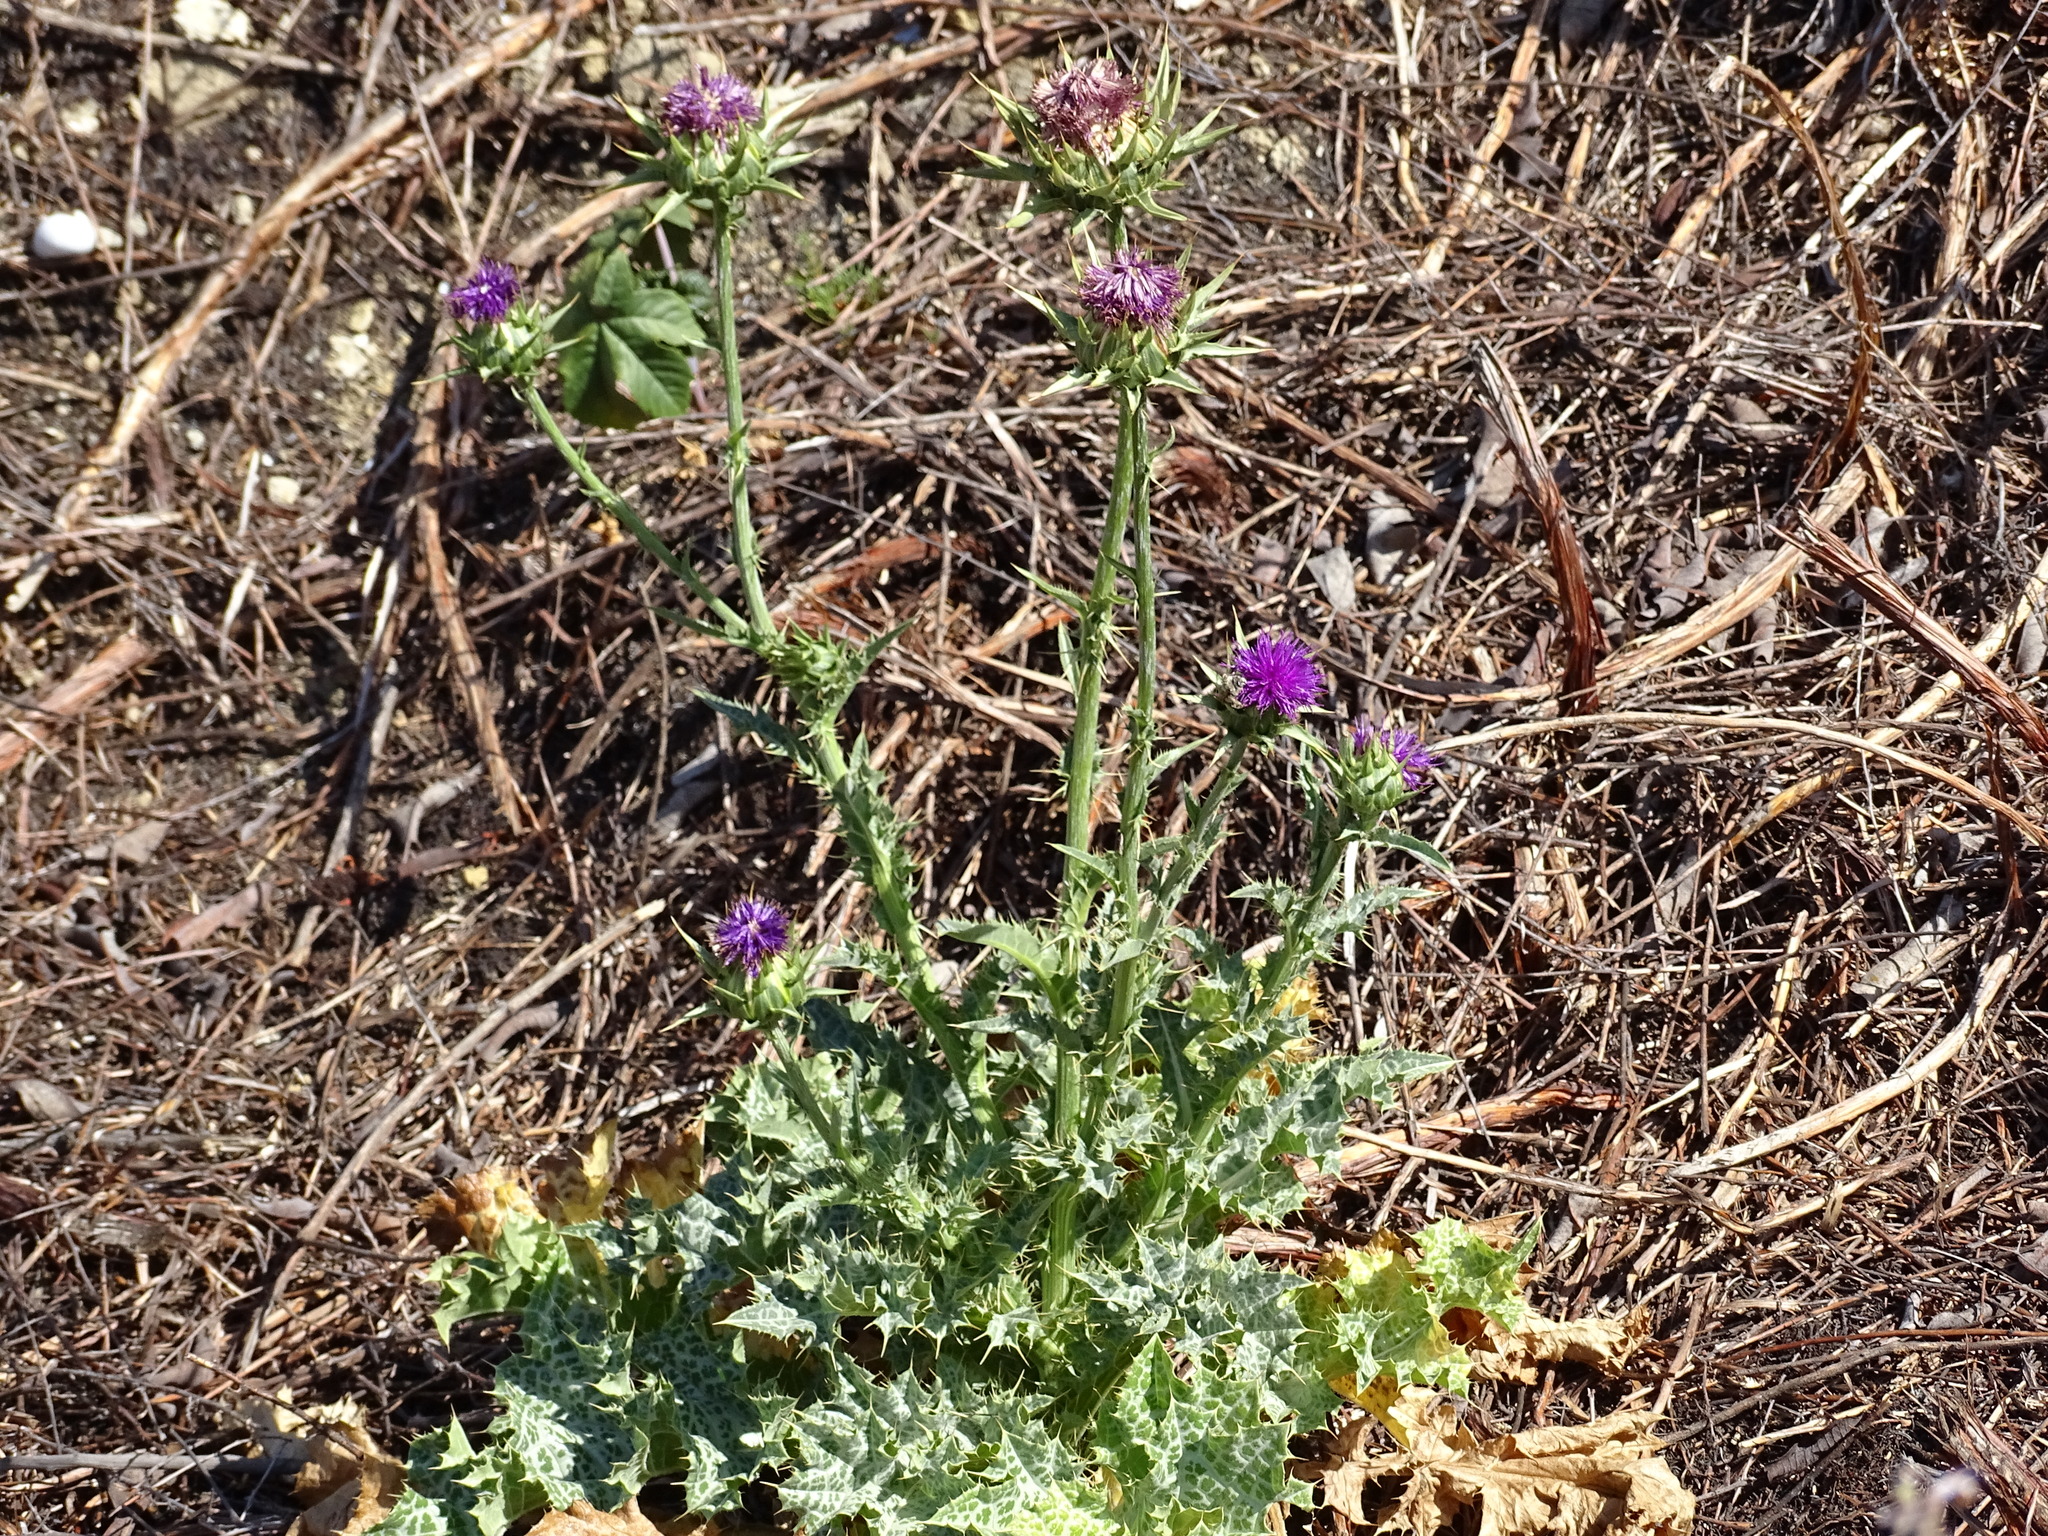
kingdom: Plantae
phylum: Tracheophyta
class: Magnoliopsida
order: Asterales
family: Asteraceae
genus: Silybum
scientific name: Silybum marianum
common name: Milk thistle
